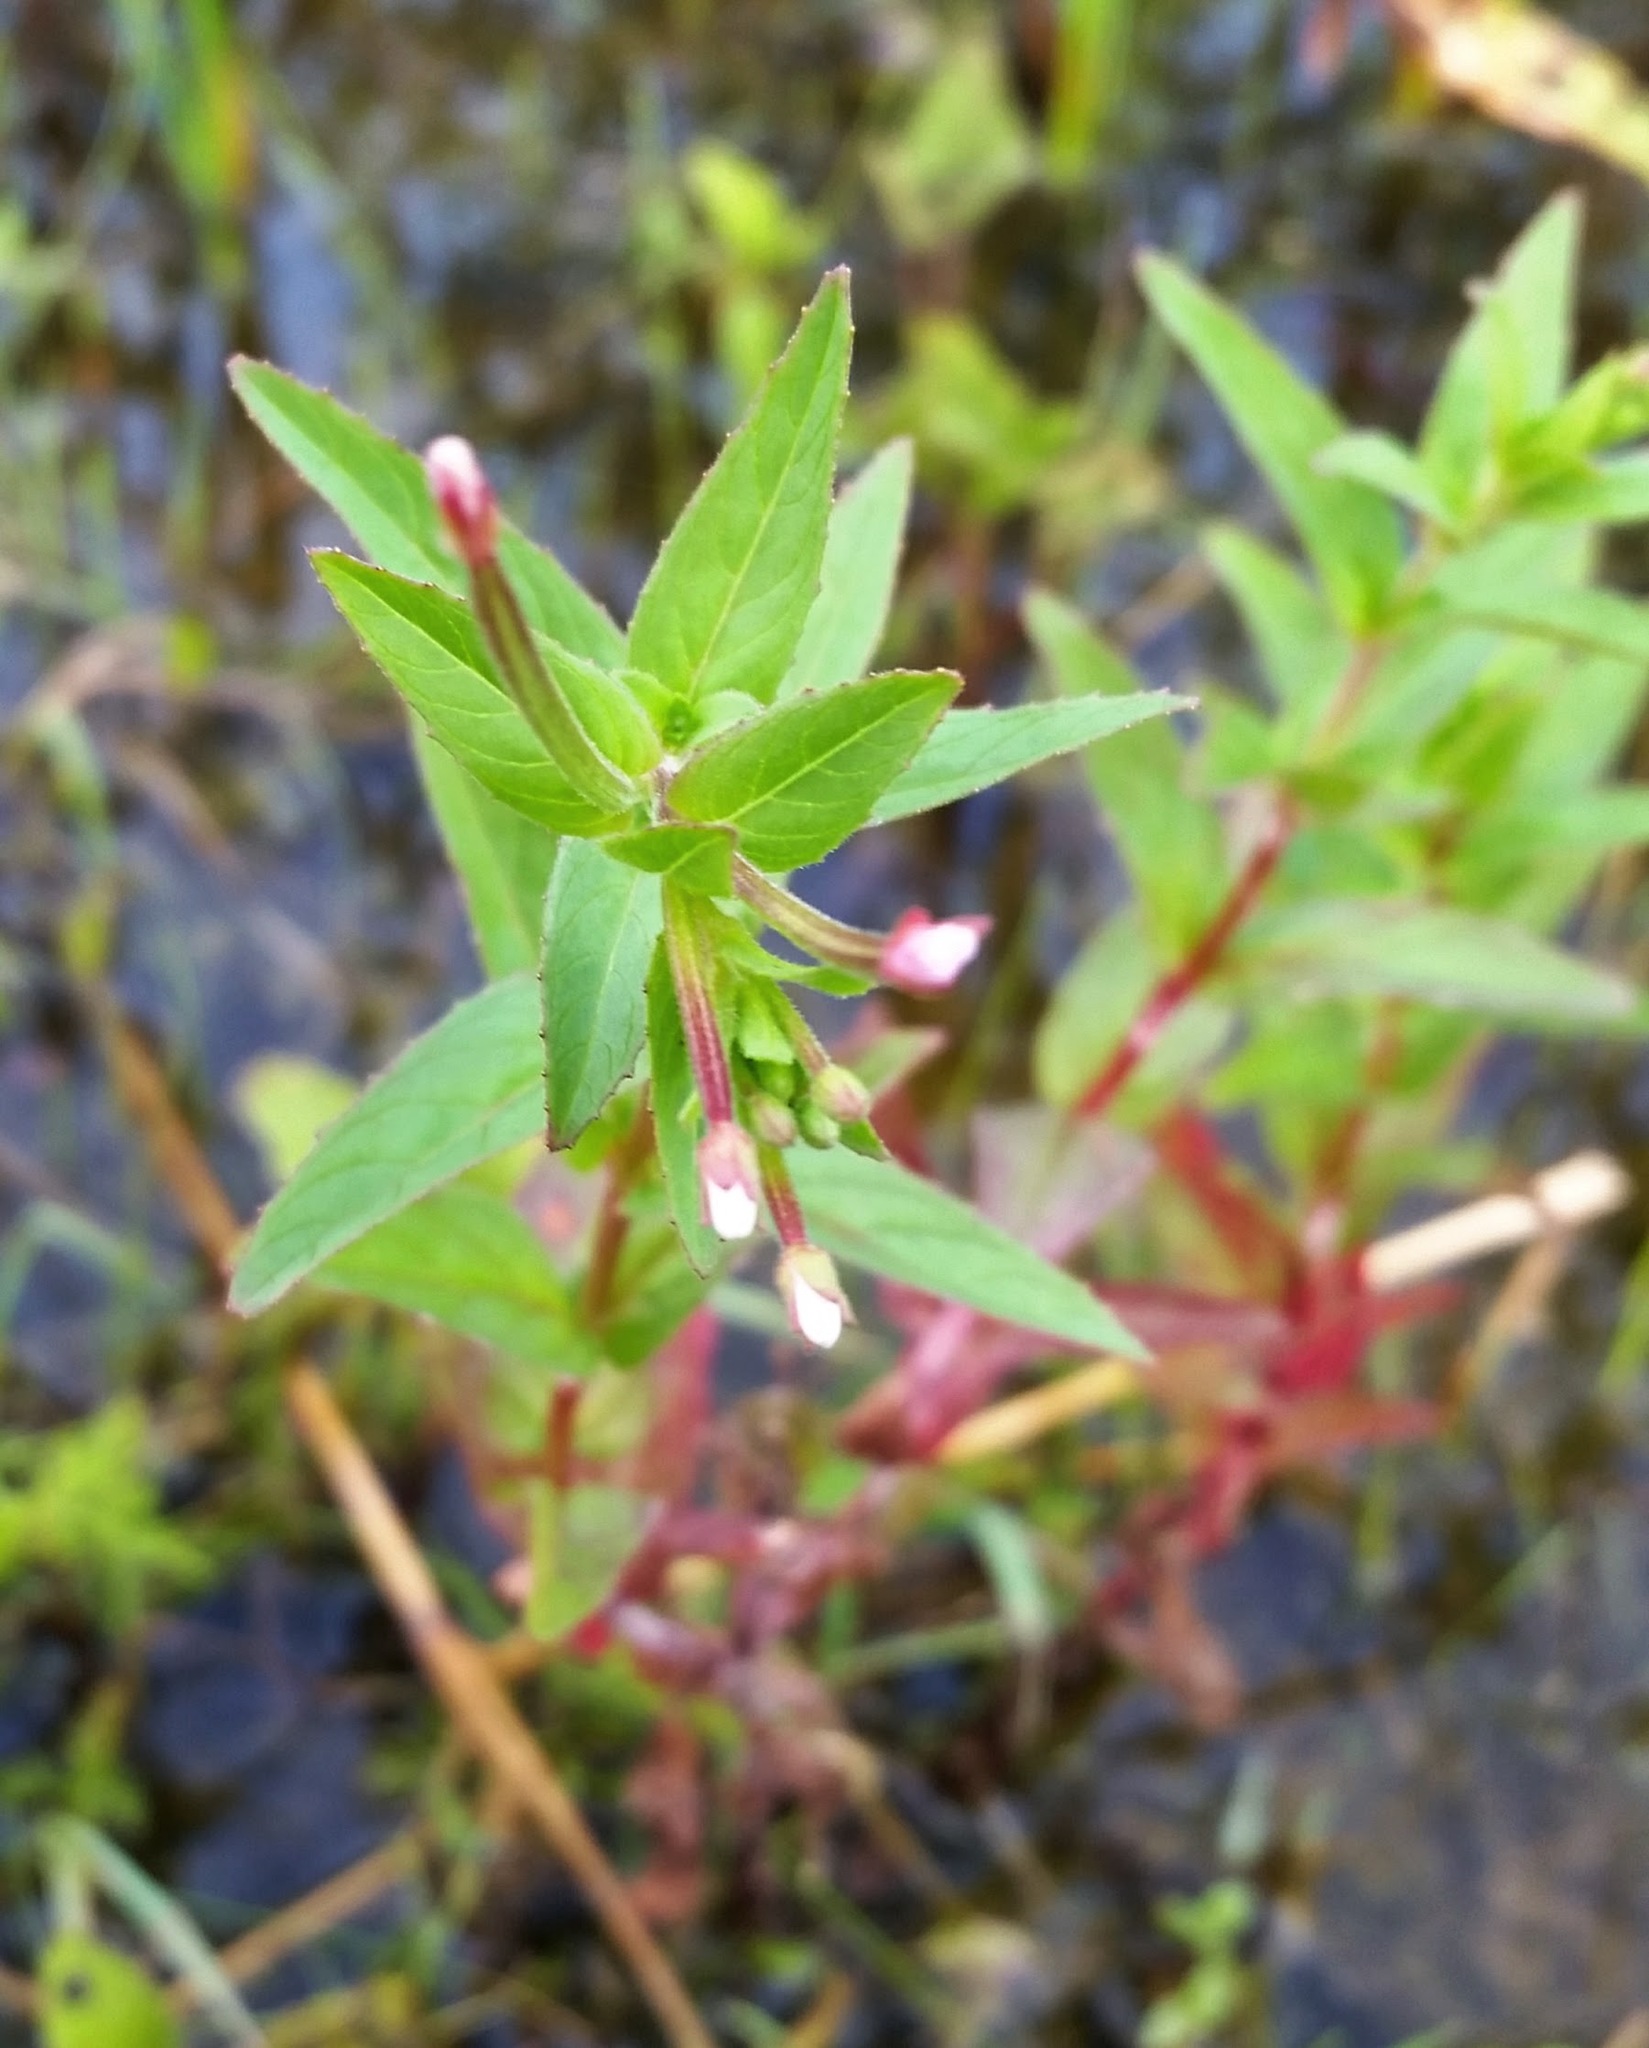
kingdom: Plantae
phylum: Tracheophyta
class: Magnoliopsida
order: Myrtales
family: Onagraceae
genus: Epilobium
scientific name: Epilobium ciliatum
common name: American willowherb
